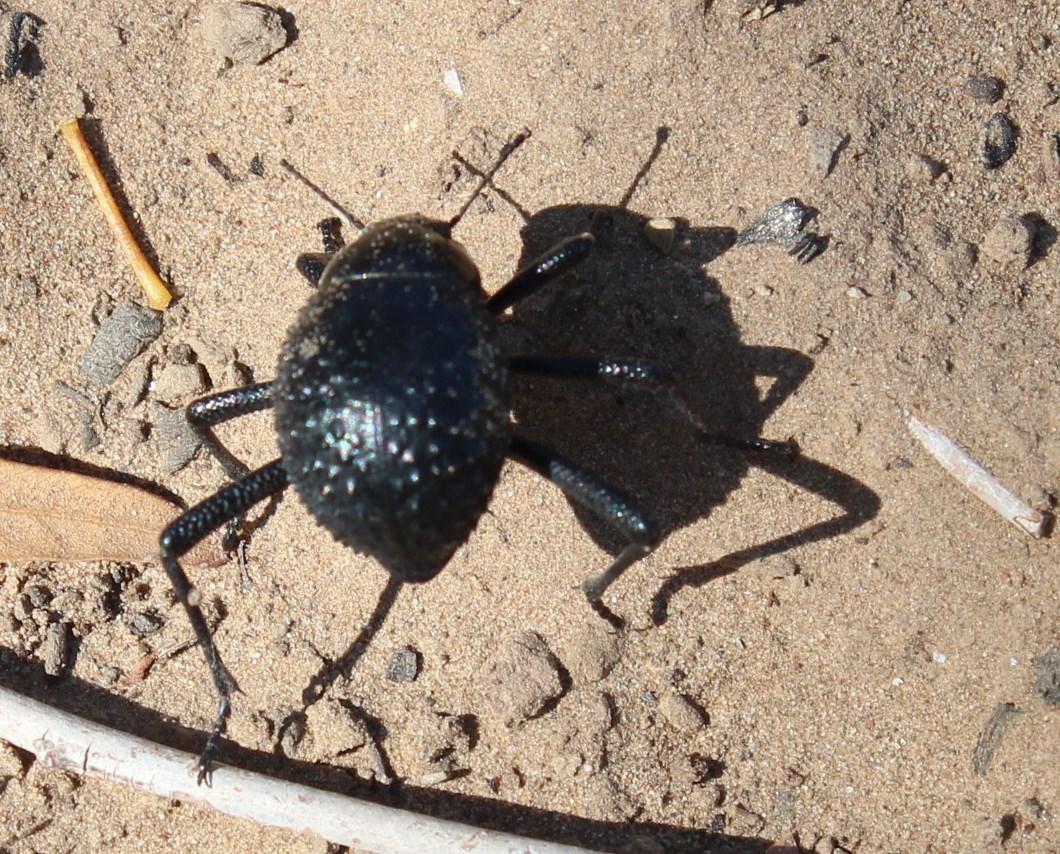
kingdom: Animalia
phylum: Arthropoda
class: Insecta
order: Coleoptera
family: Tenebrionidae
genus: Adesmia
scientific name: Adesmia
